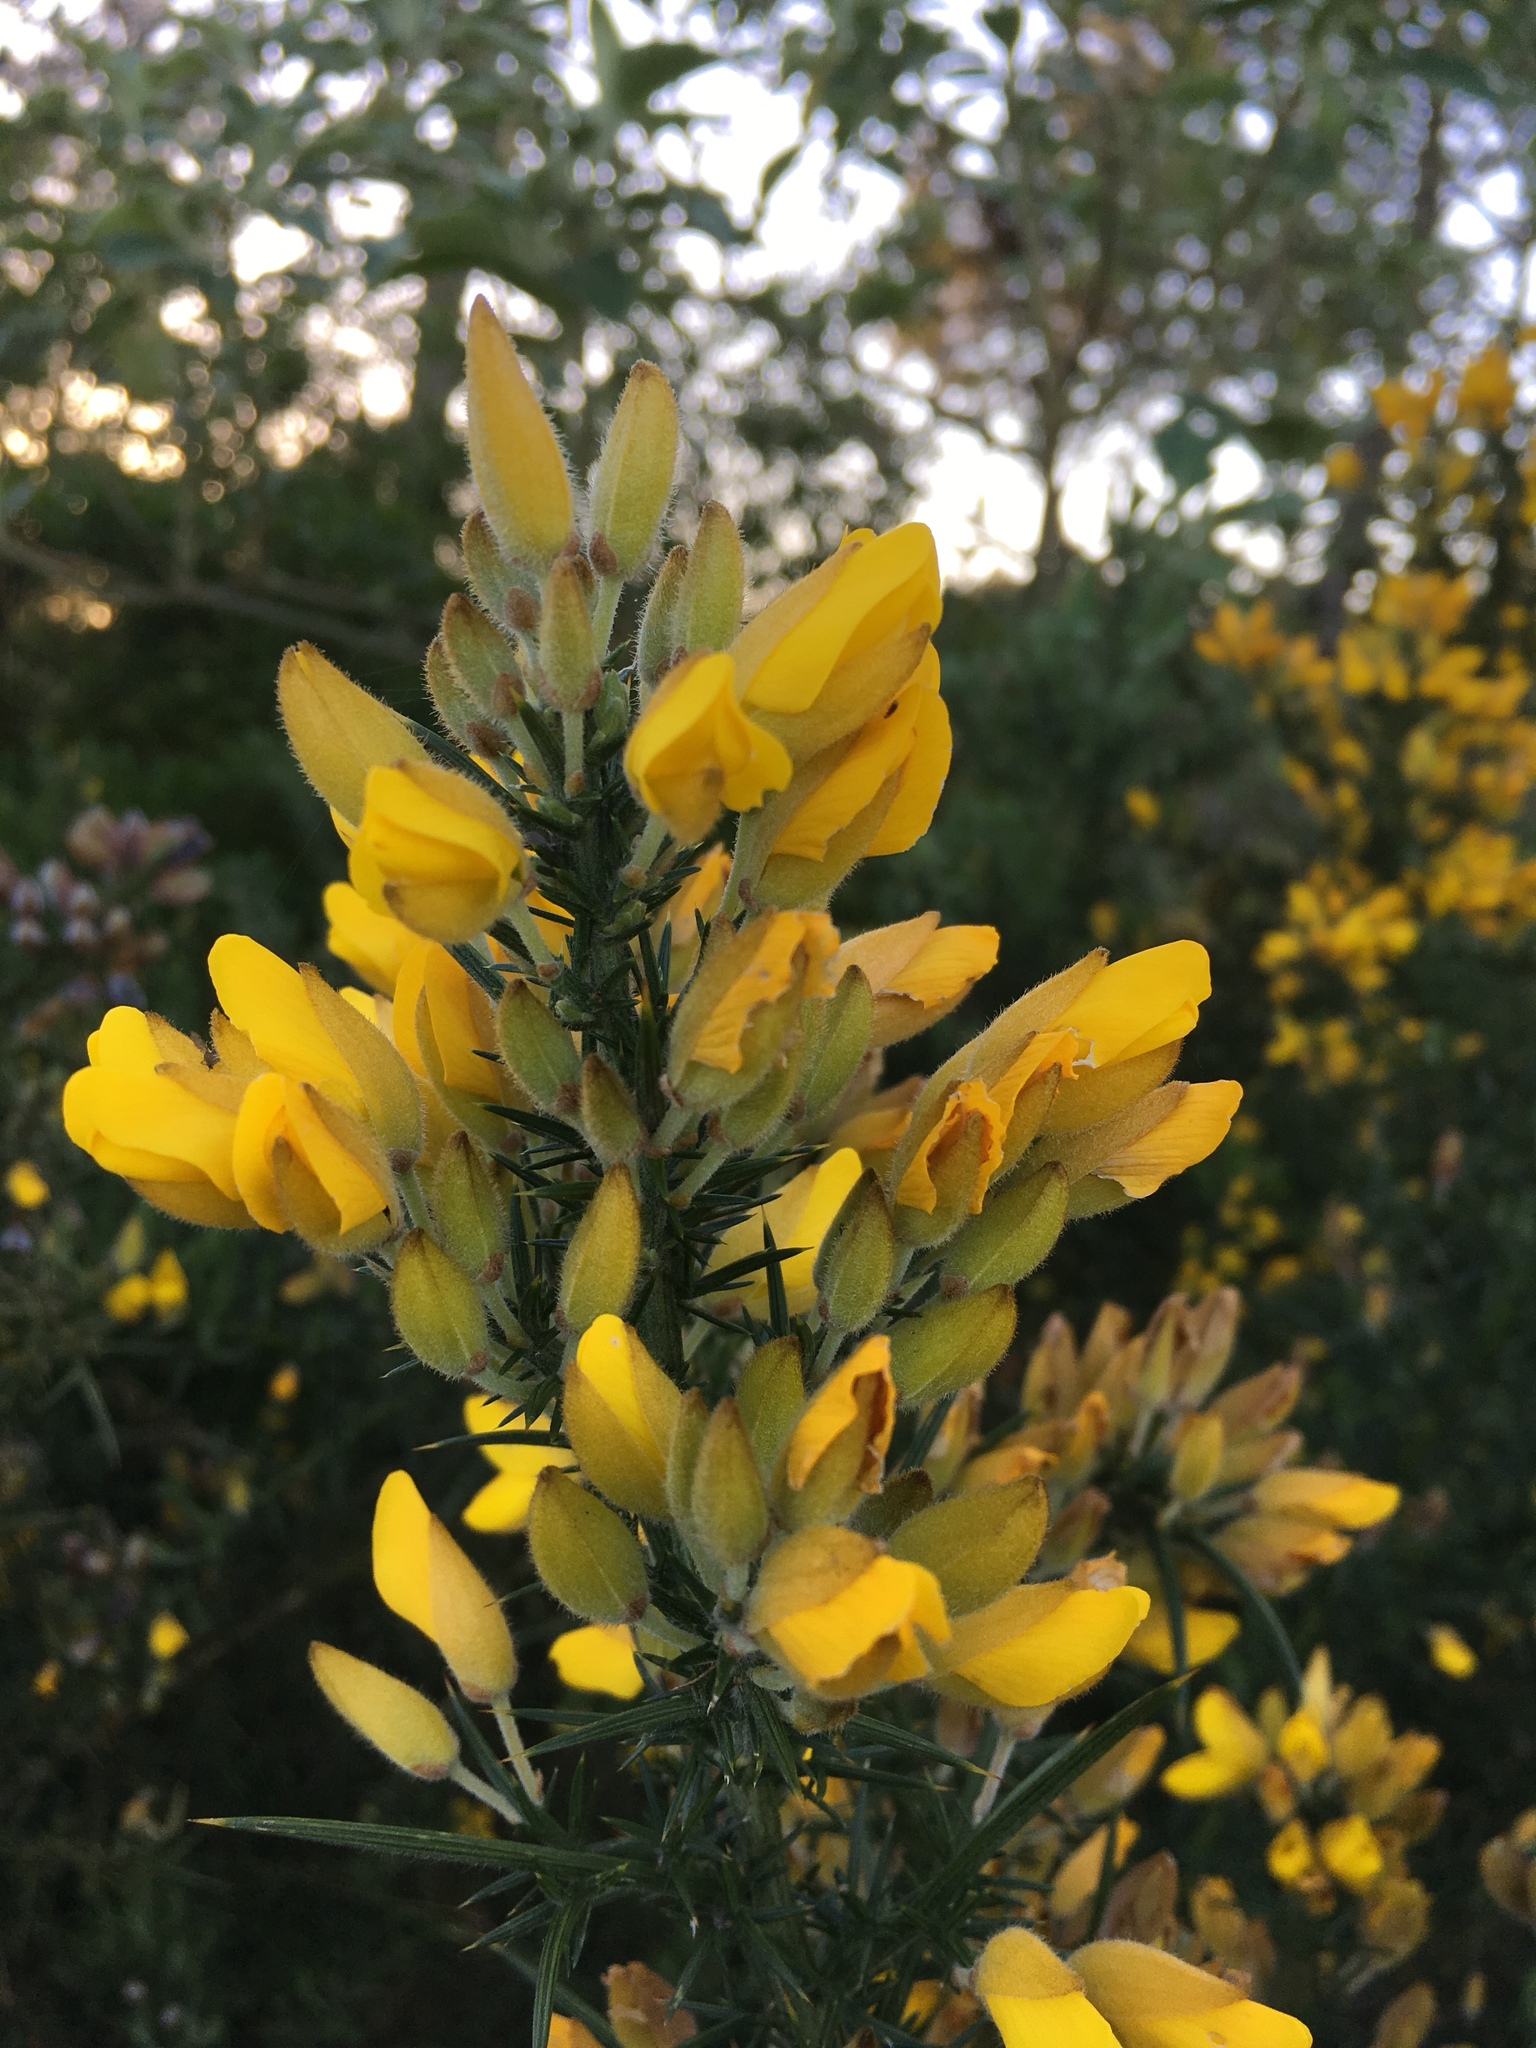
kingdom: Plantae
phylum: Tracheophyta
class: Magnoliopsida
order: Fabales
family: Fabaceae
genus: Ulex
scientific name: Ulex europaeus
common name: Common gorse
